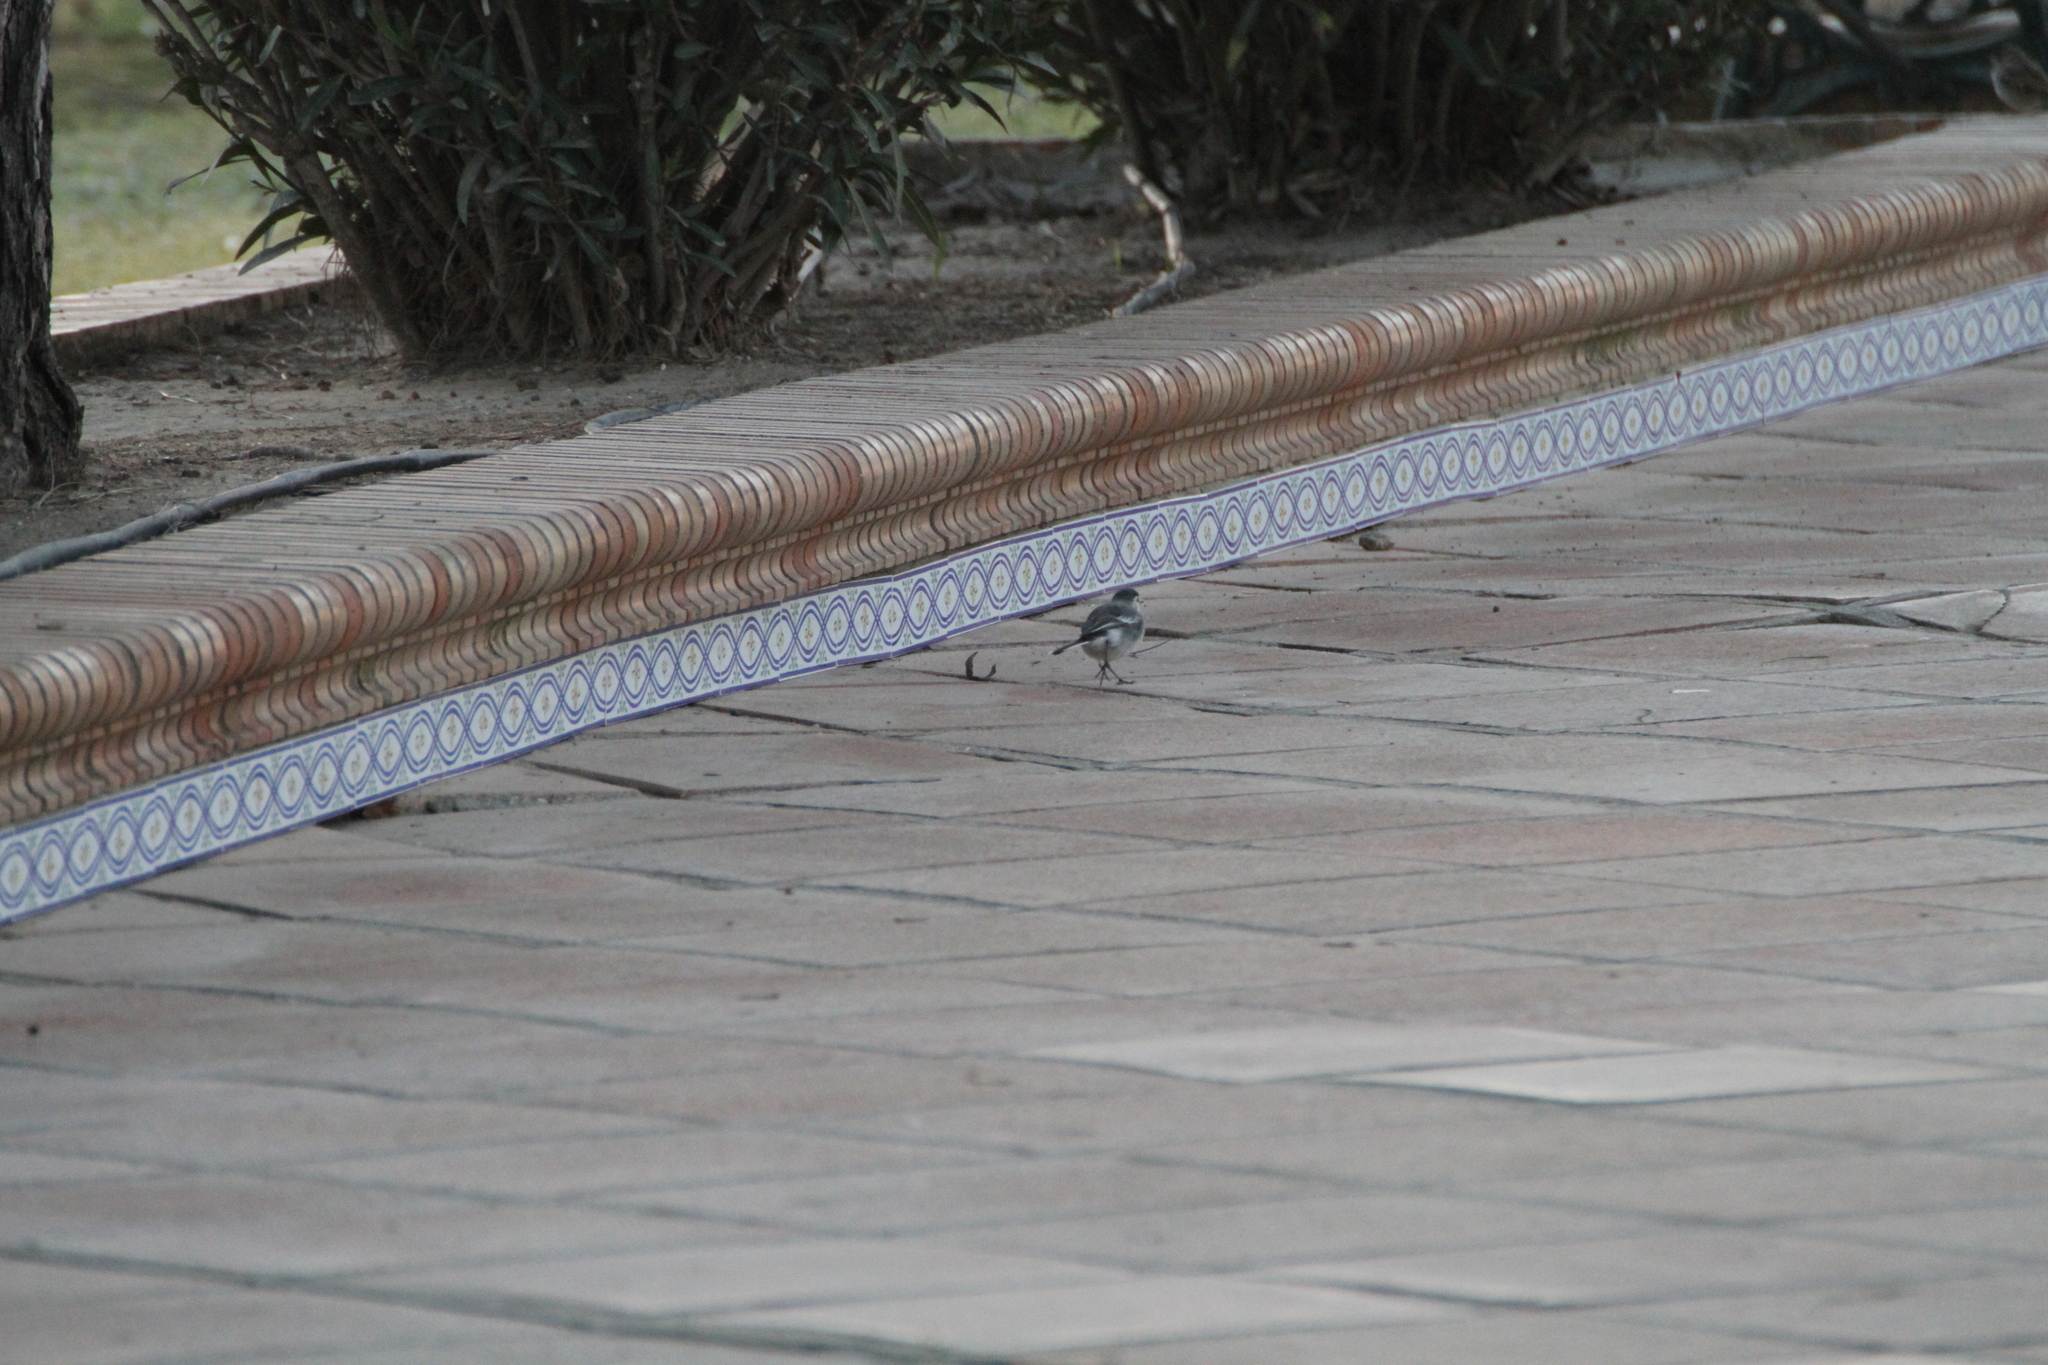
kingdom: Animalia
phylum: Chordata
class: Aves
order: Passeriformes
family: Motacillidae
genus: Motacilla
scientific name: Motacilla alba
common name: White wagtail
